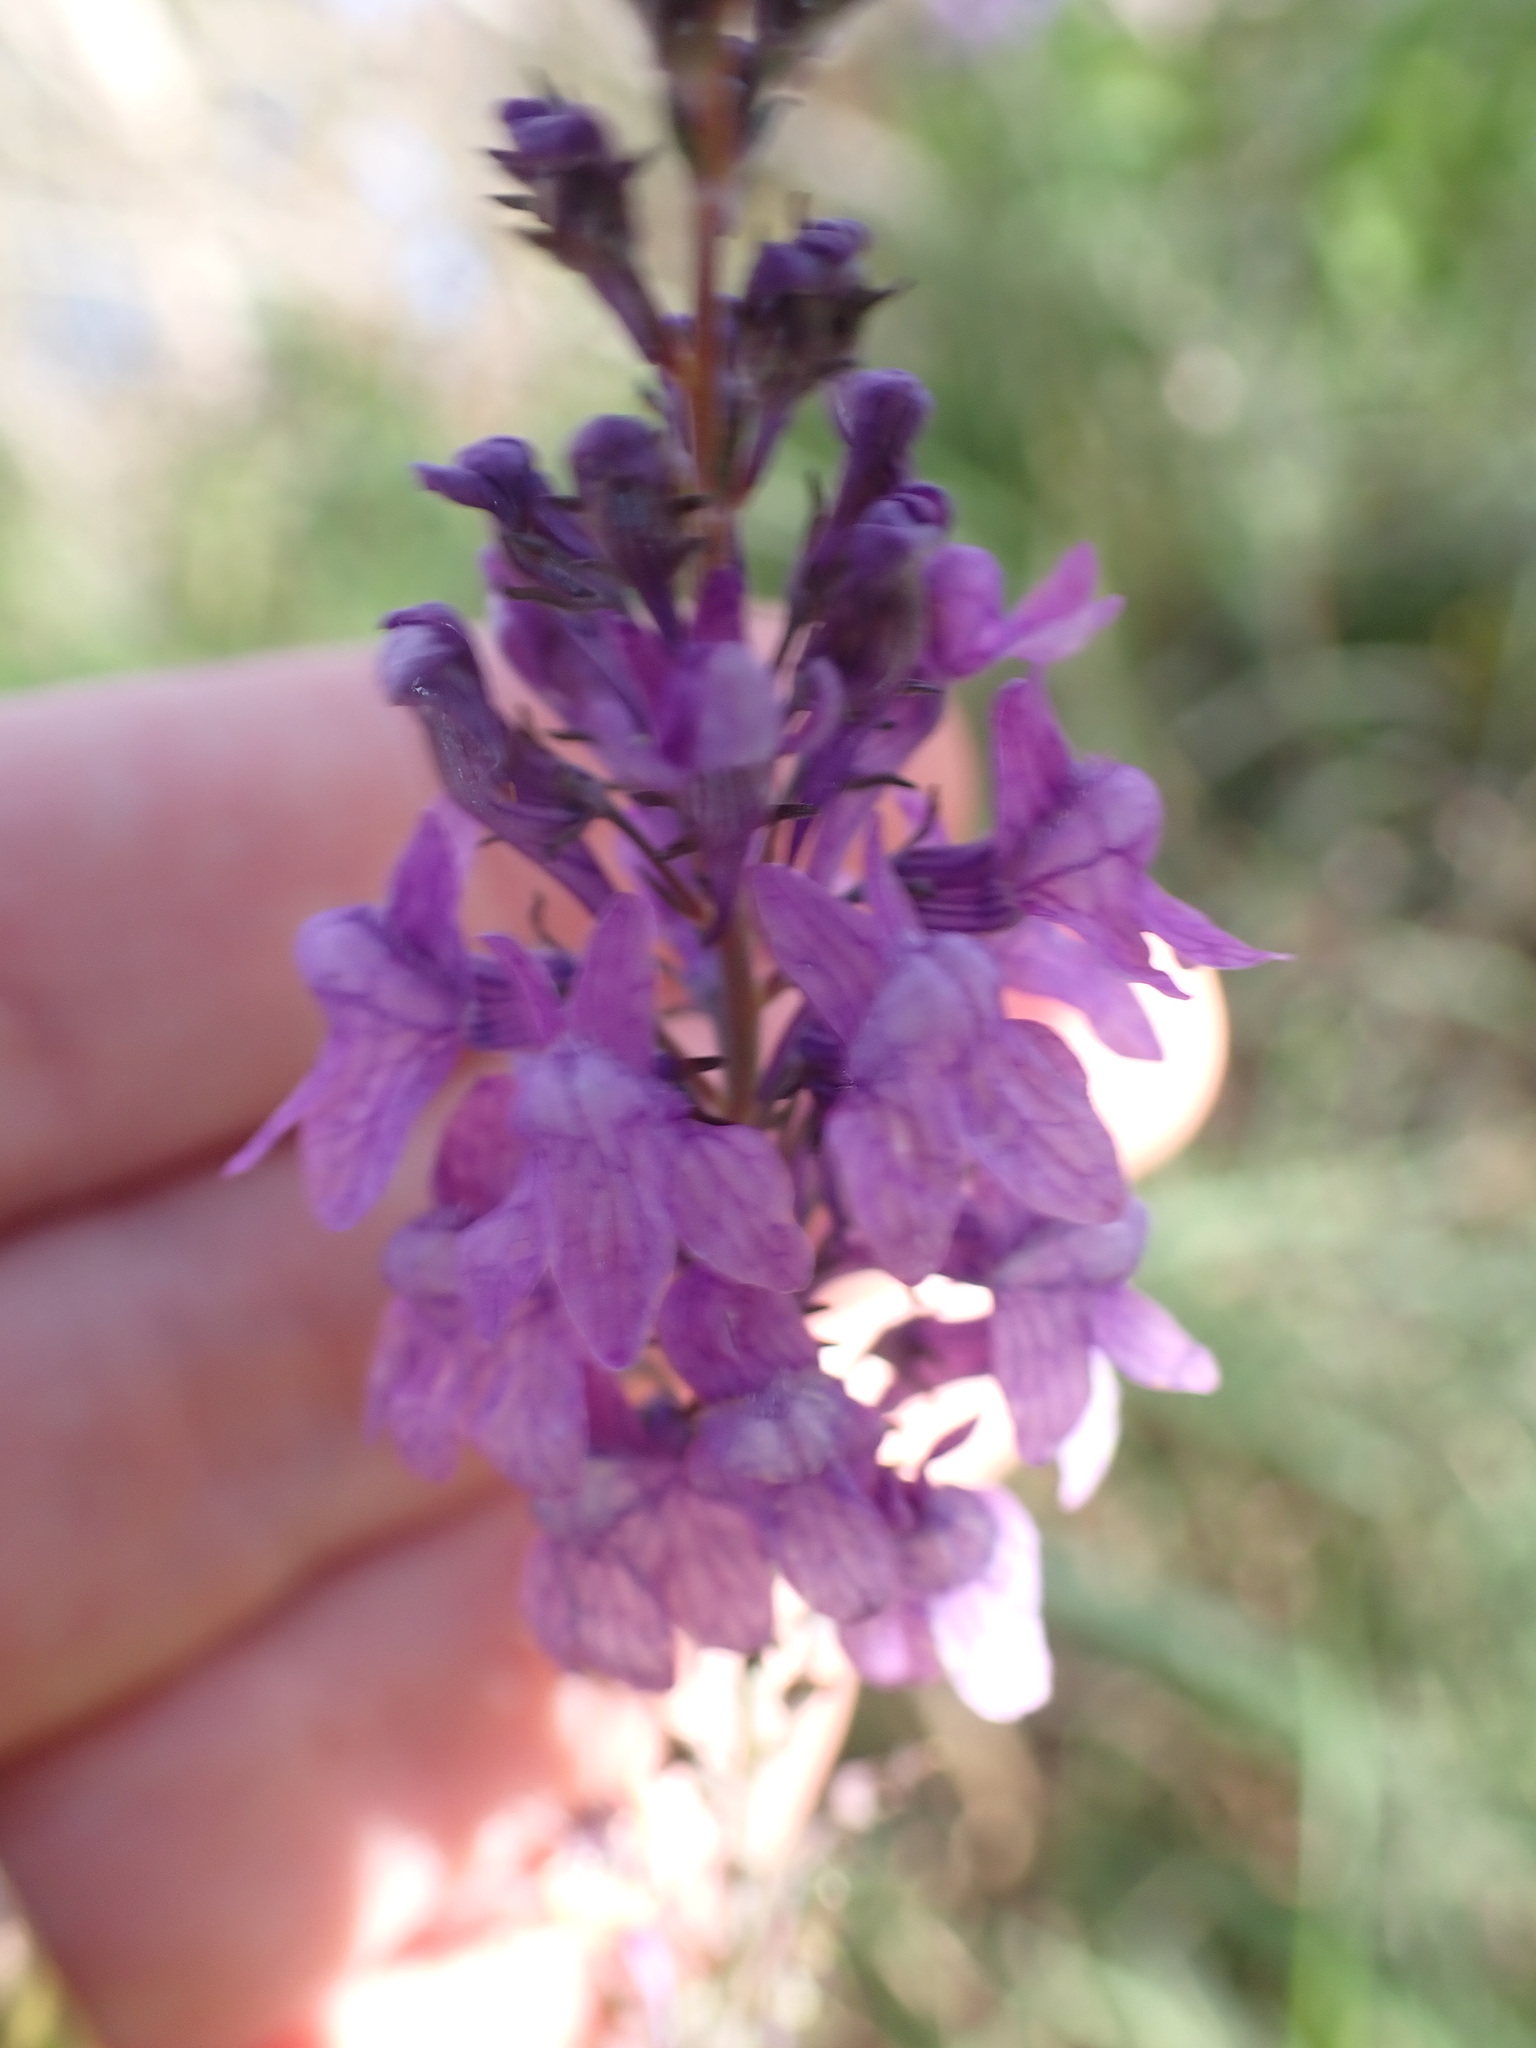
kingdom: Plantae
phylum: Tracheophyta
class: Magnoliopsida
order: Lamiales
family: Plantaginaceae
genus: Linaria
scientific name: Linaria purpurea
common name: Purple toadflax
